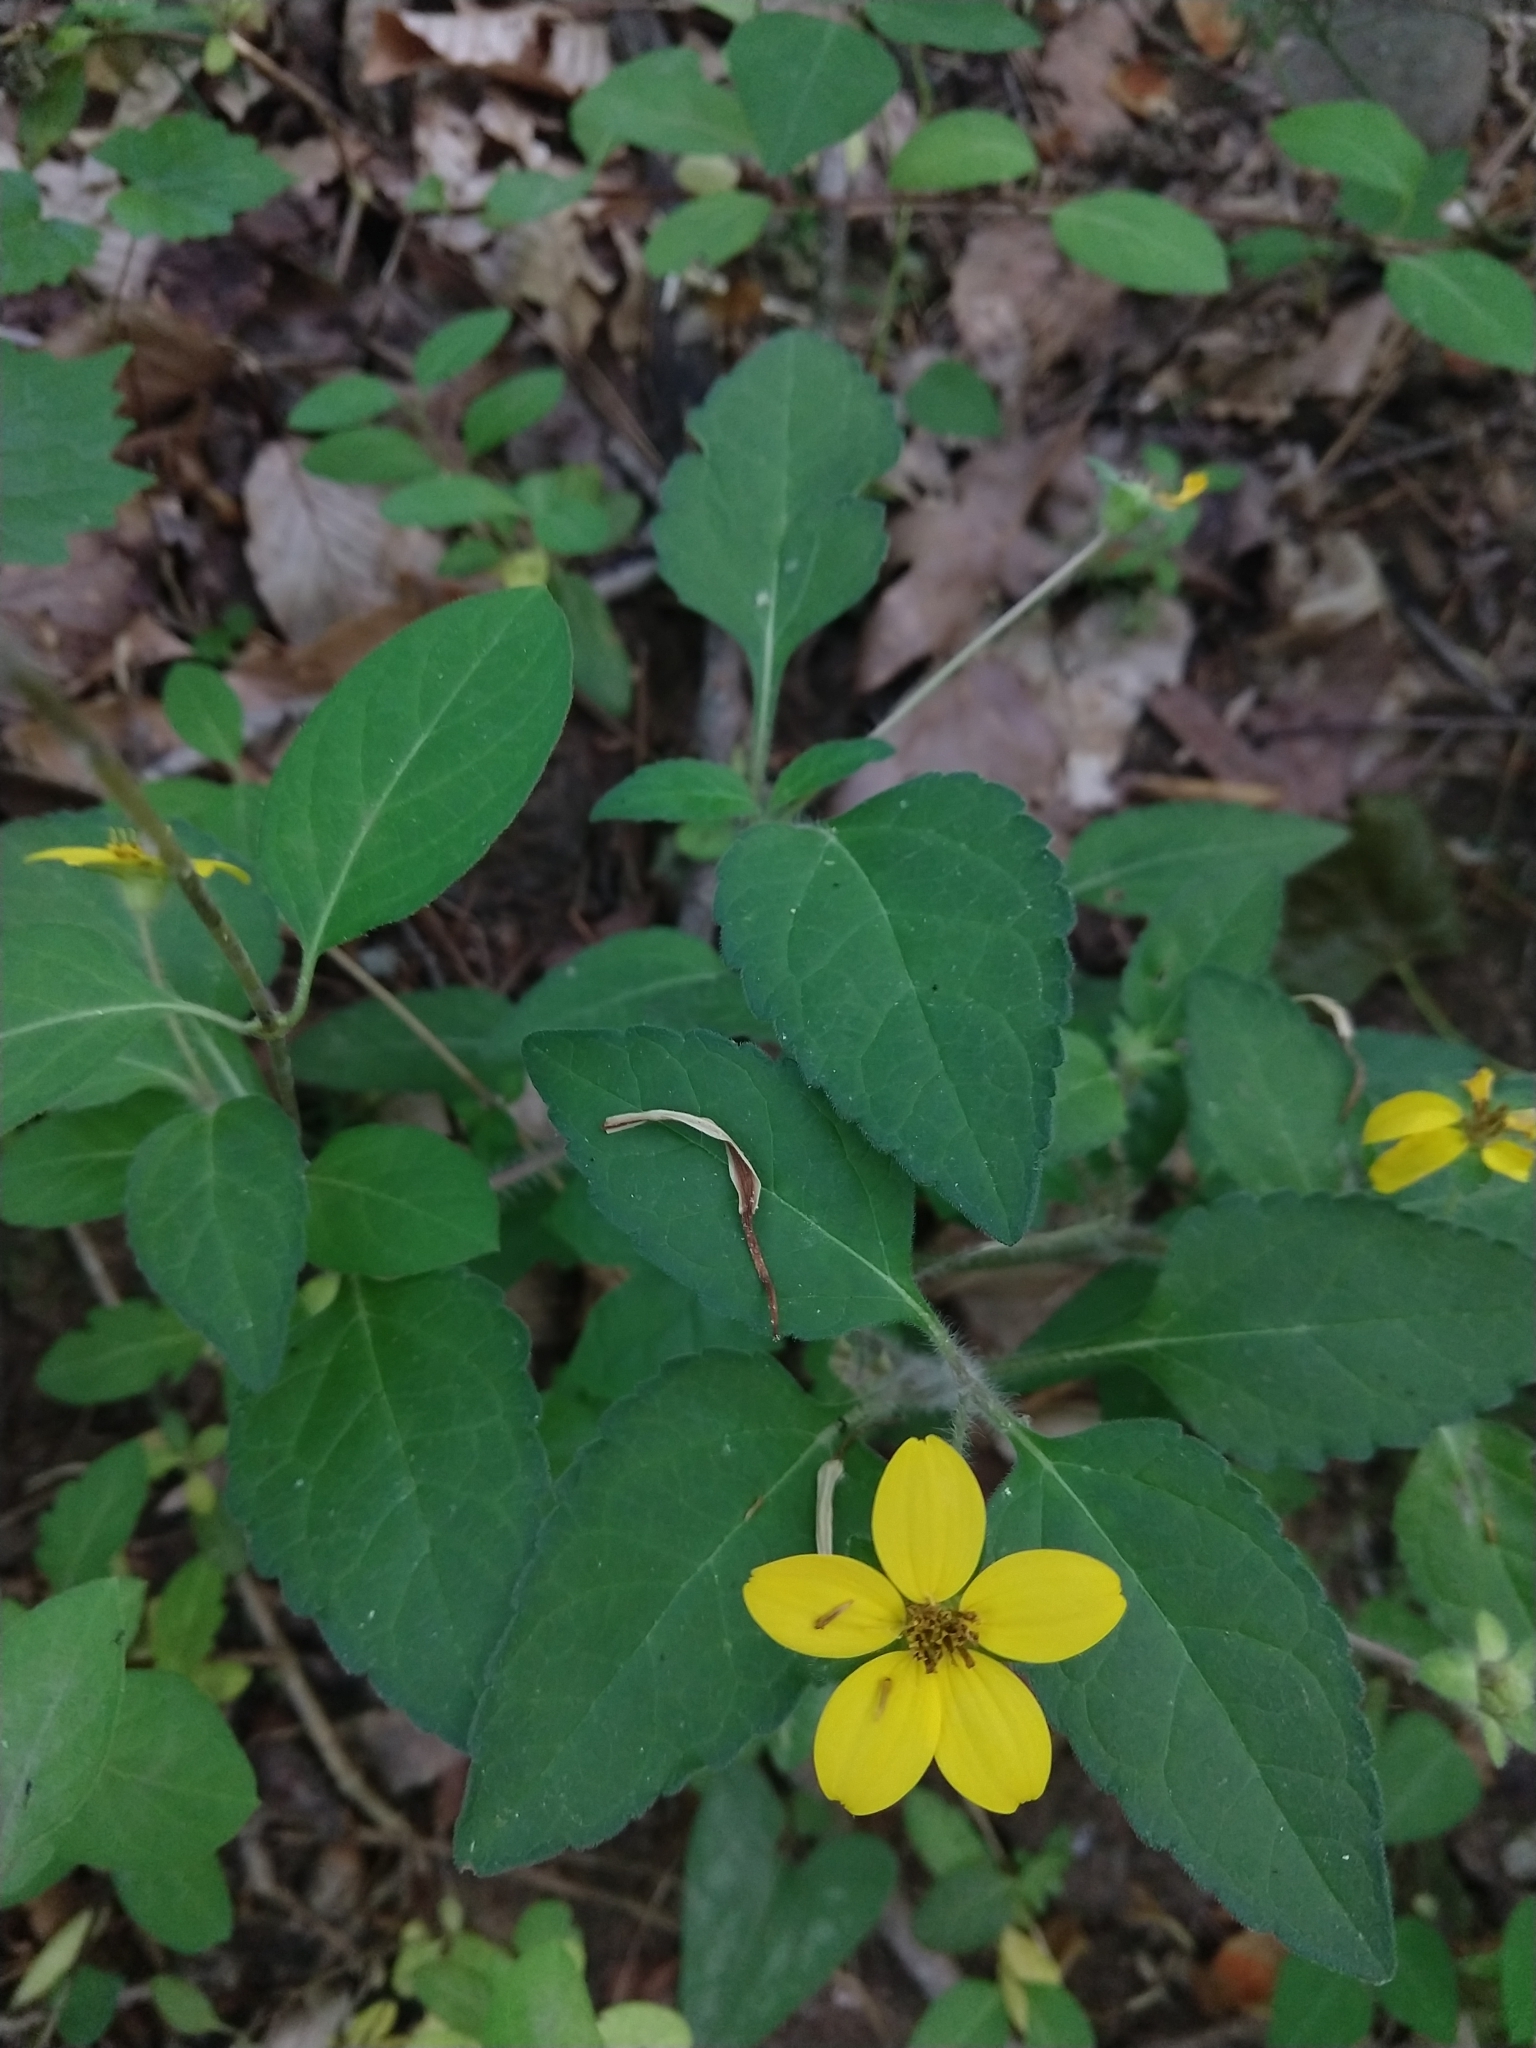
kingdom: Plantae
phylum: Tracheophyta
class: Magnoliopsida
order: Asterales
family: Asteraceae
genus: Chrysogonum
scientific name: Chrysogonum virginianum
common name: Golden-knee
